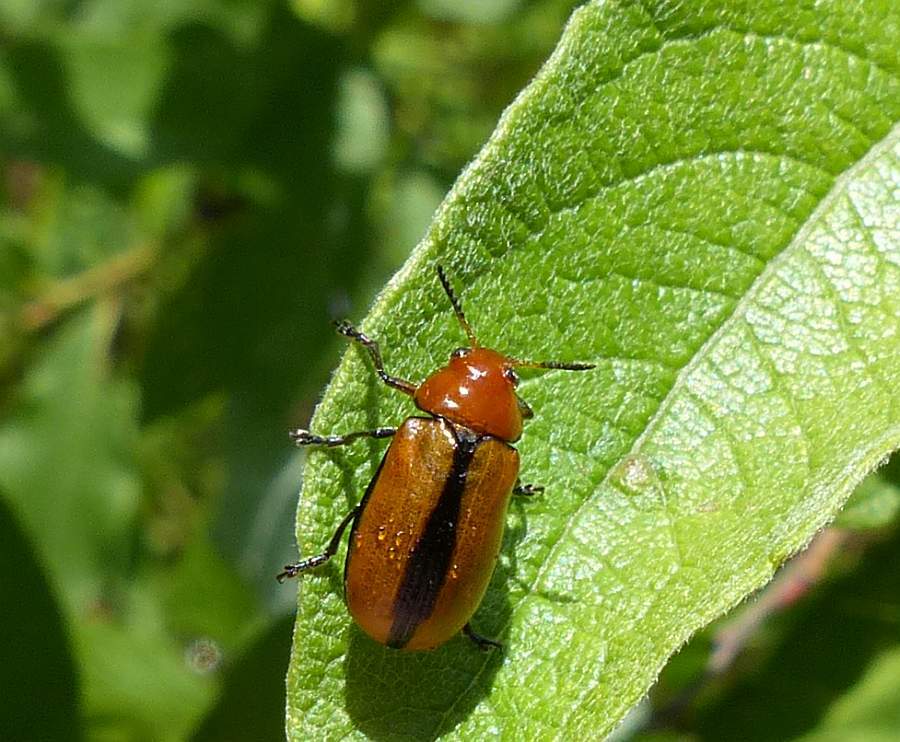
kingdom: Animalia
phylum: Arthropoda
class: Insecta
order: Coleoptera
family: Chrysomelidae
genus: Anomoea
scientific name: Anomoea laticlavia
